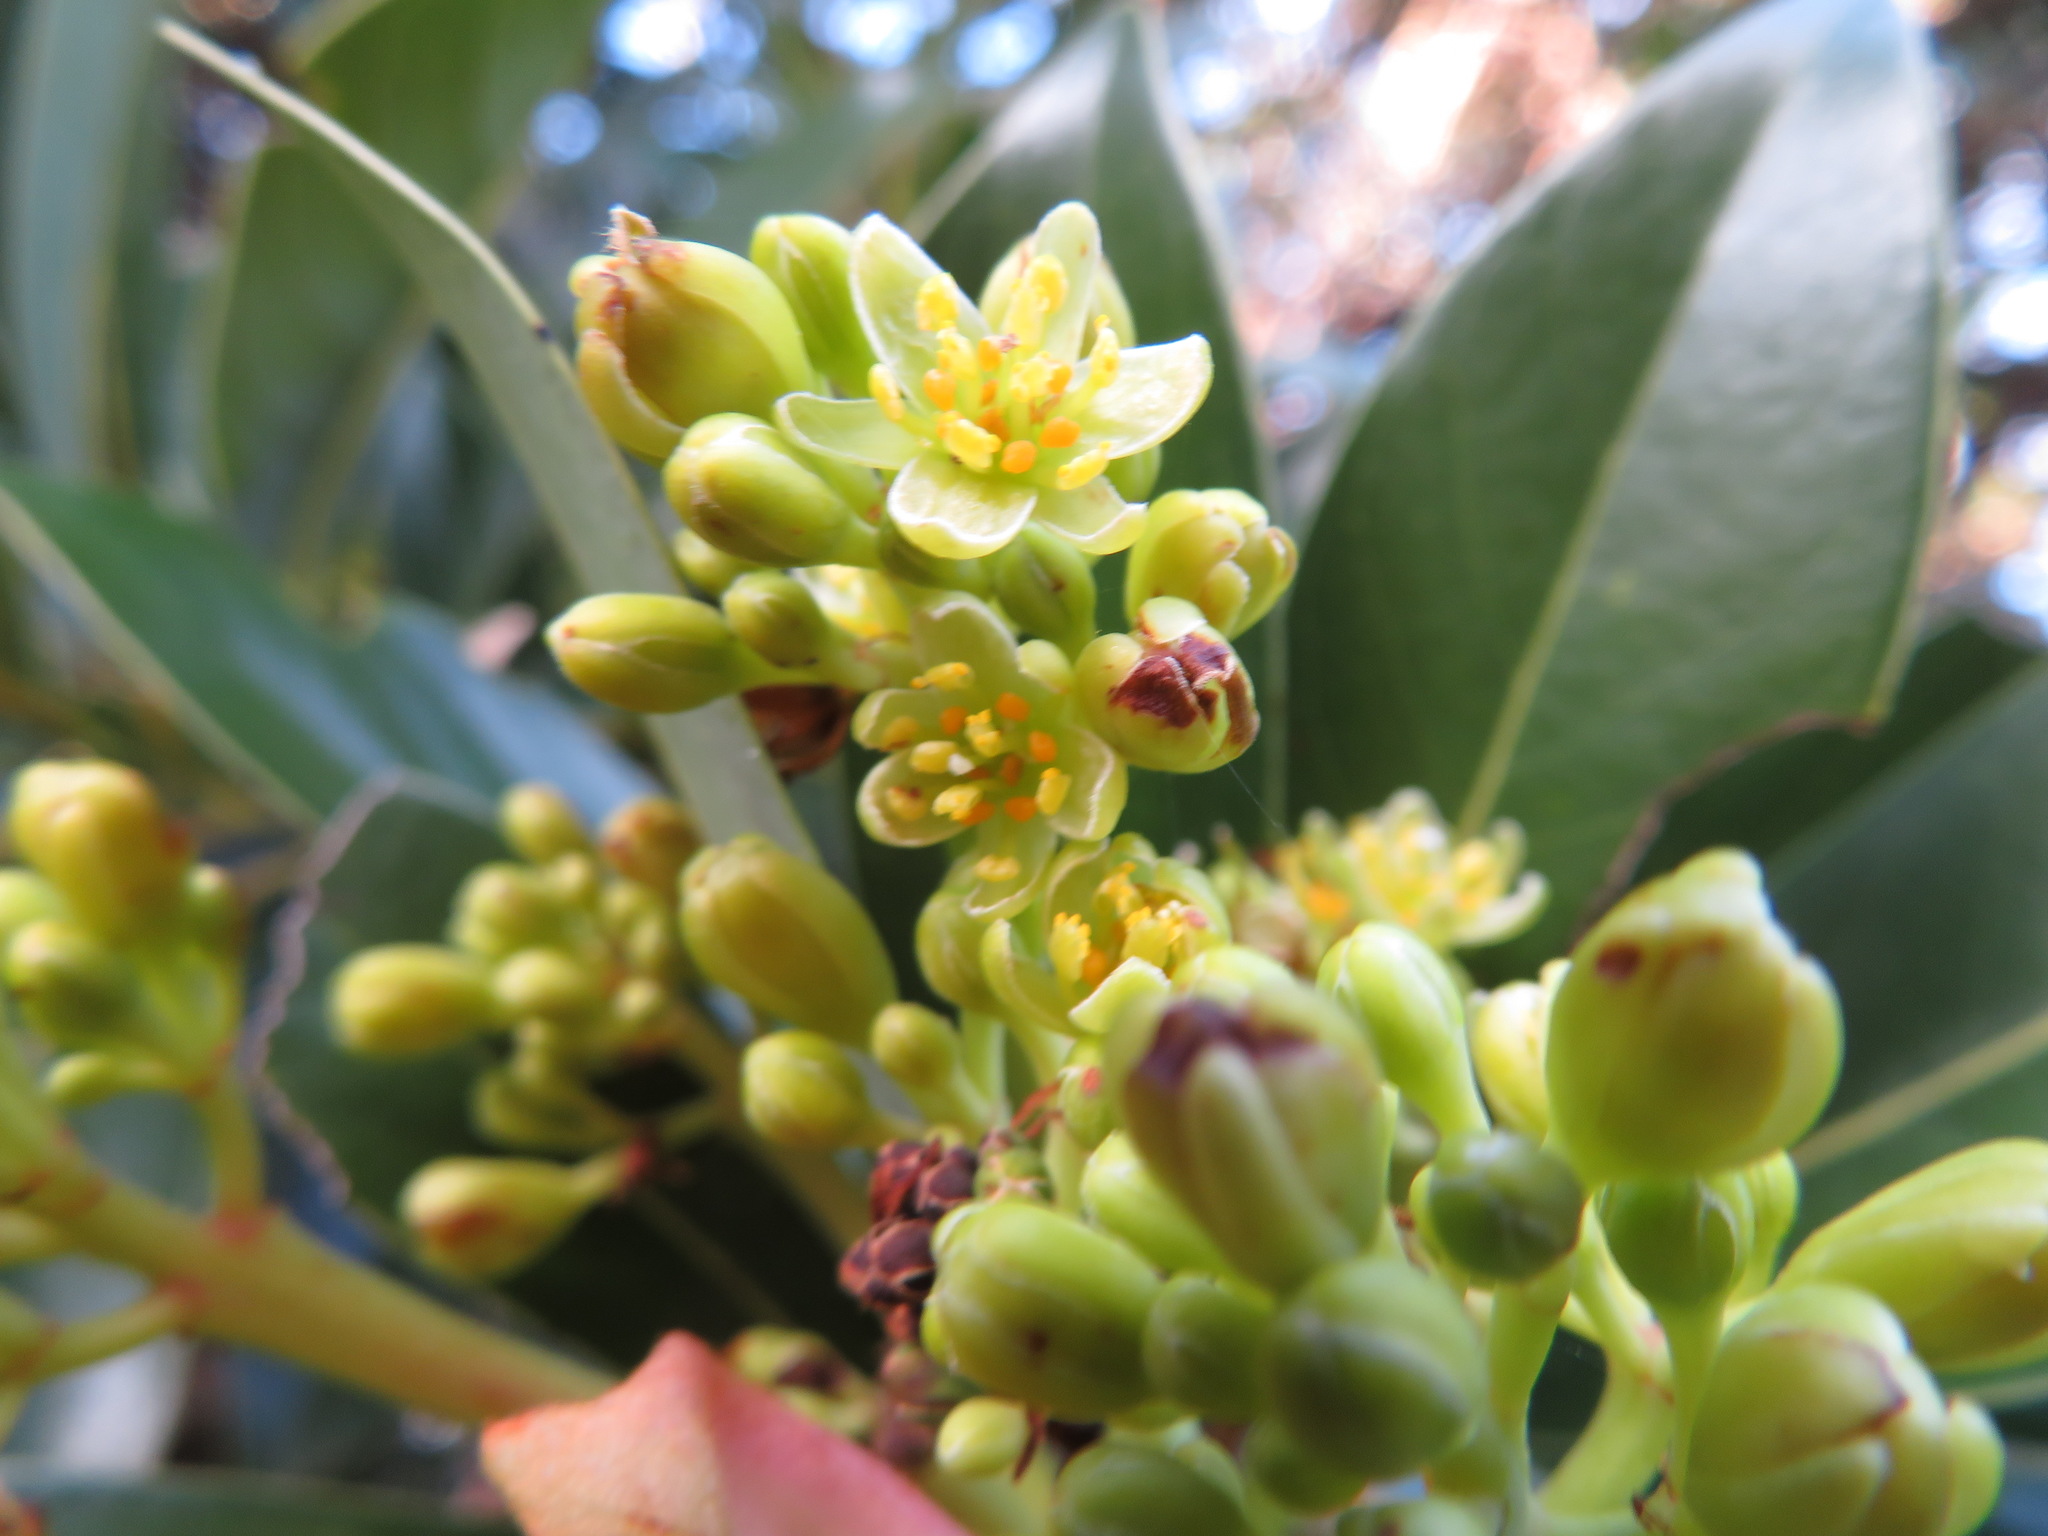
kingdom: Plantae
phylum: Tracheophyta
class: Magnoliopsida
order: Laurales
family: Lauraceae
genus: Machilus
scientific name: Machilus thunbergii
